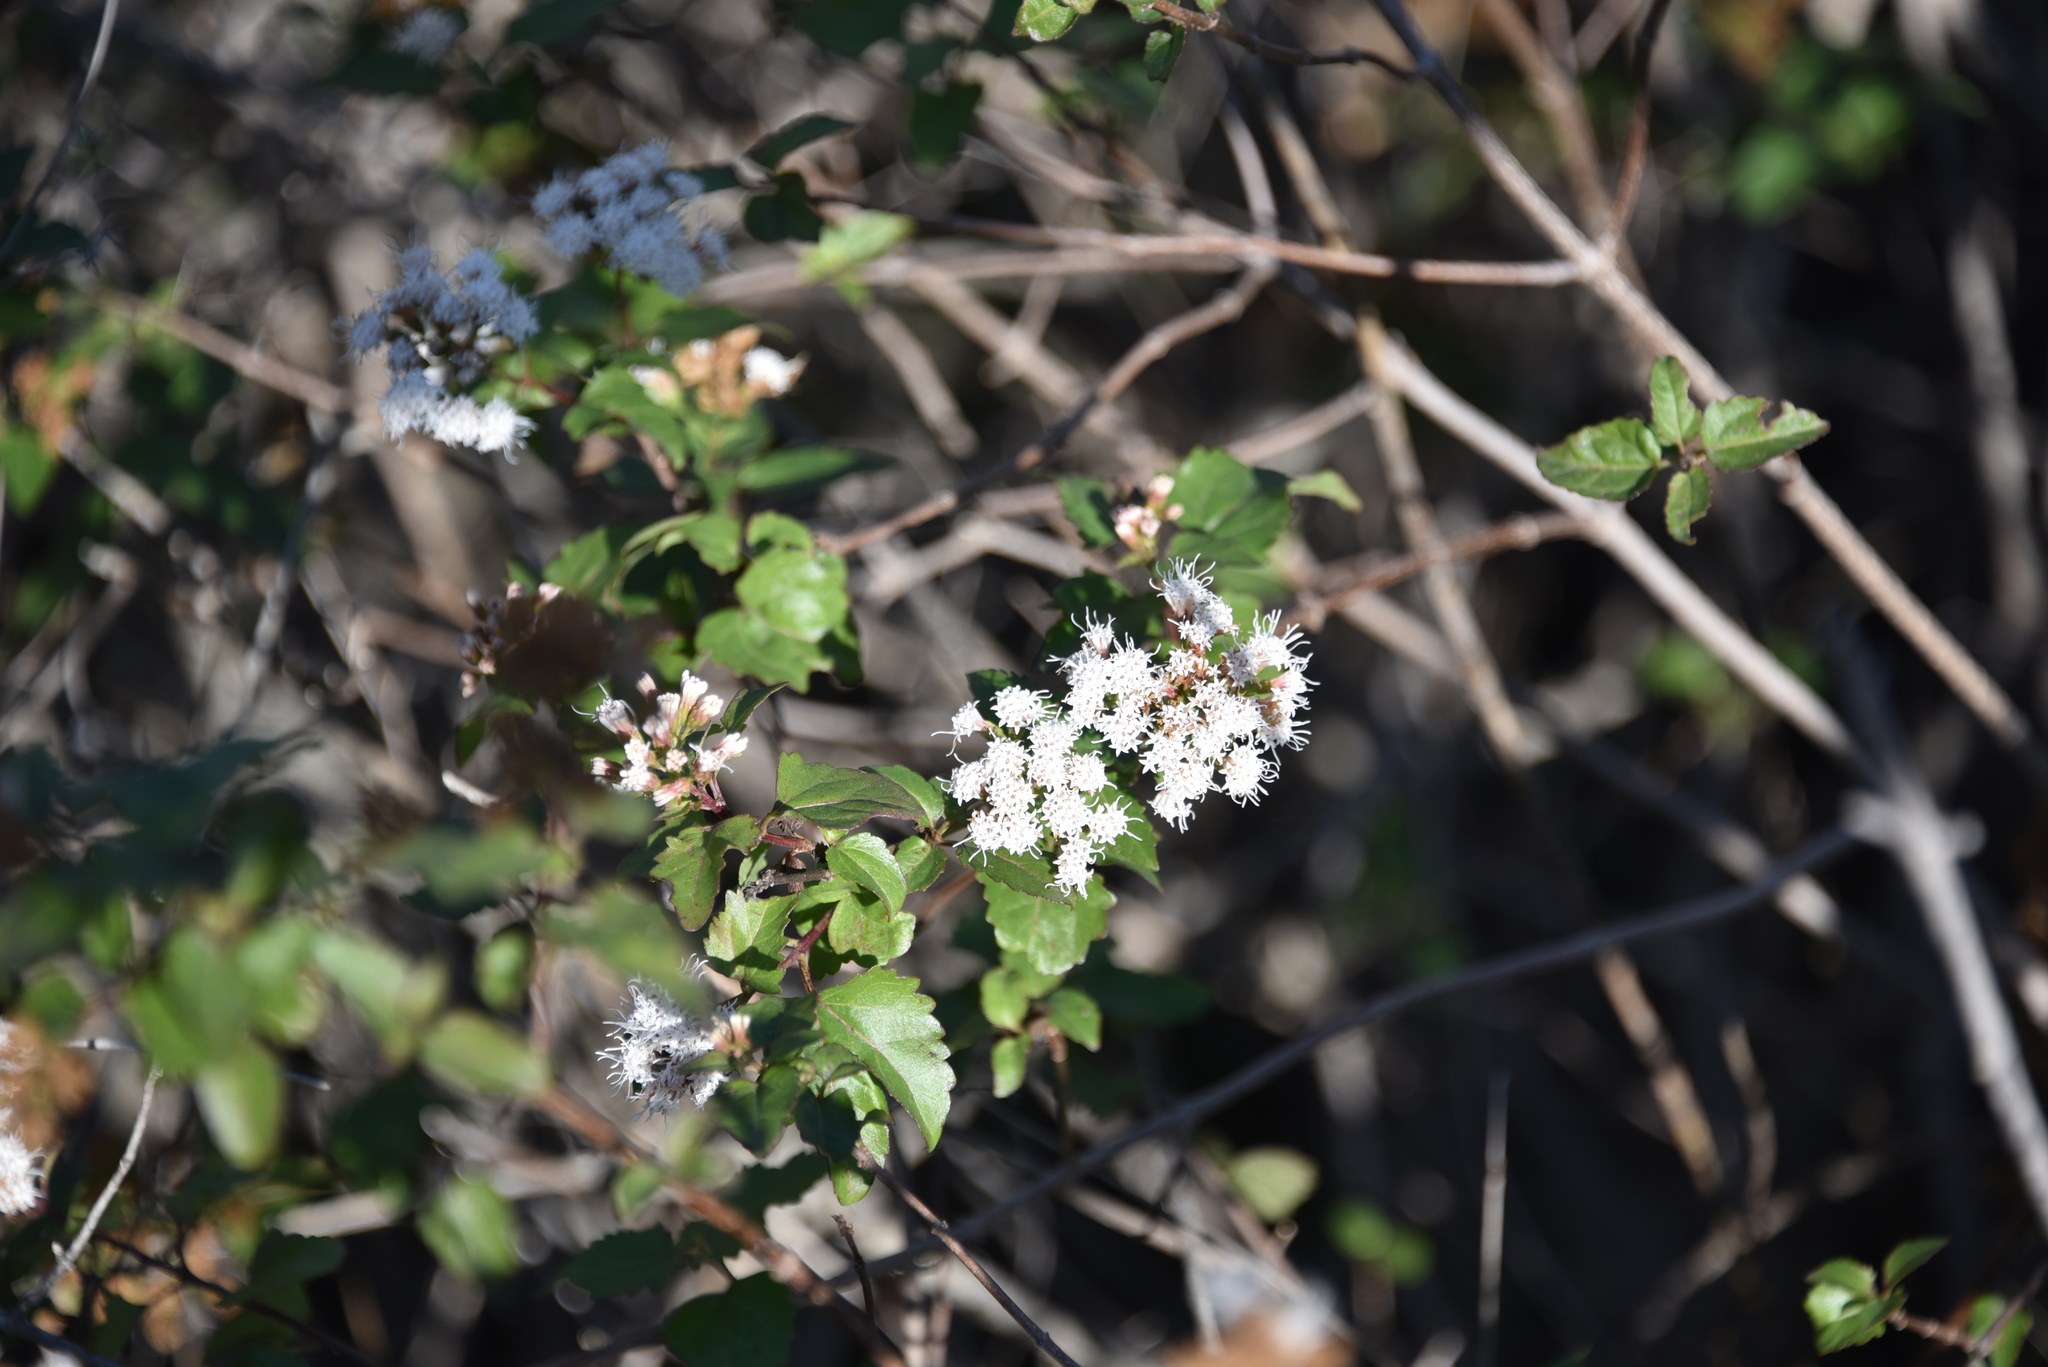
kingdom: Plantae
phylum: Tracheophyta
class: Magnoliopsida
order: Asterales
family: Asteraceae
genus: Ageratina
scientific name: Ageratina havanensis
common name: Havana snakeroot
